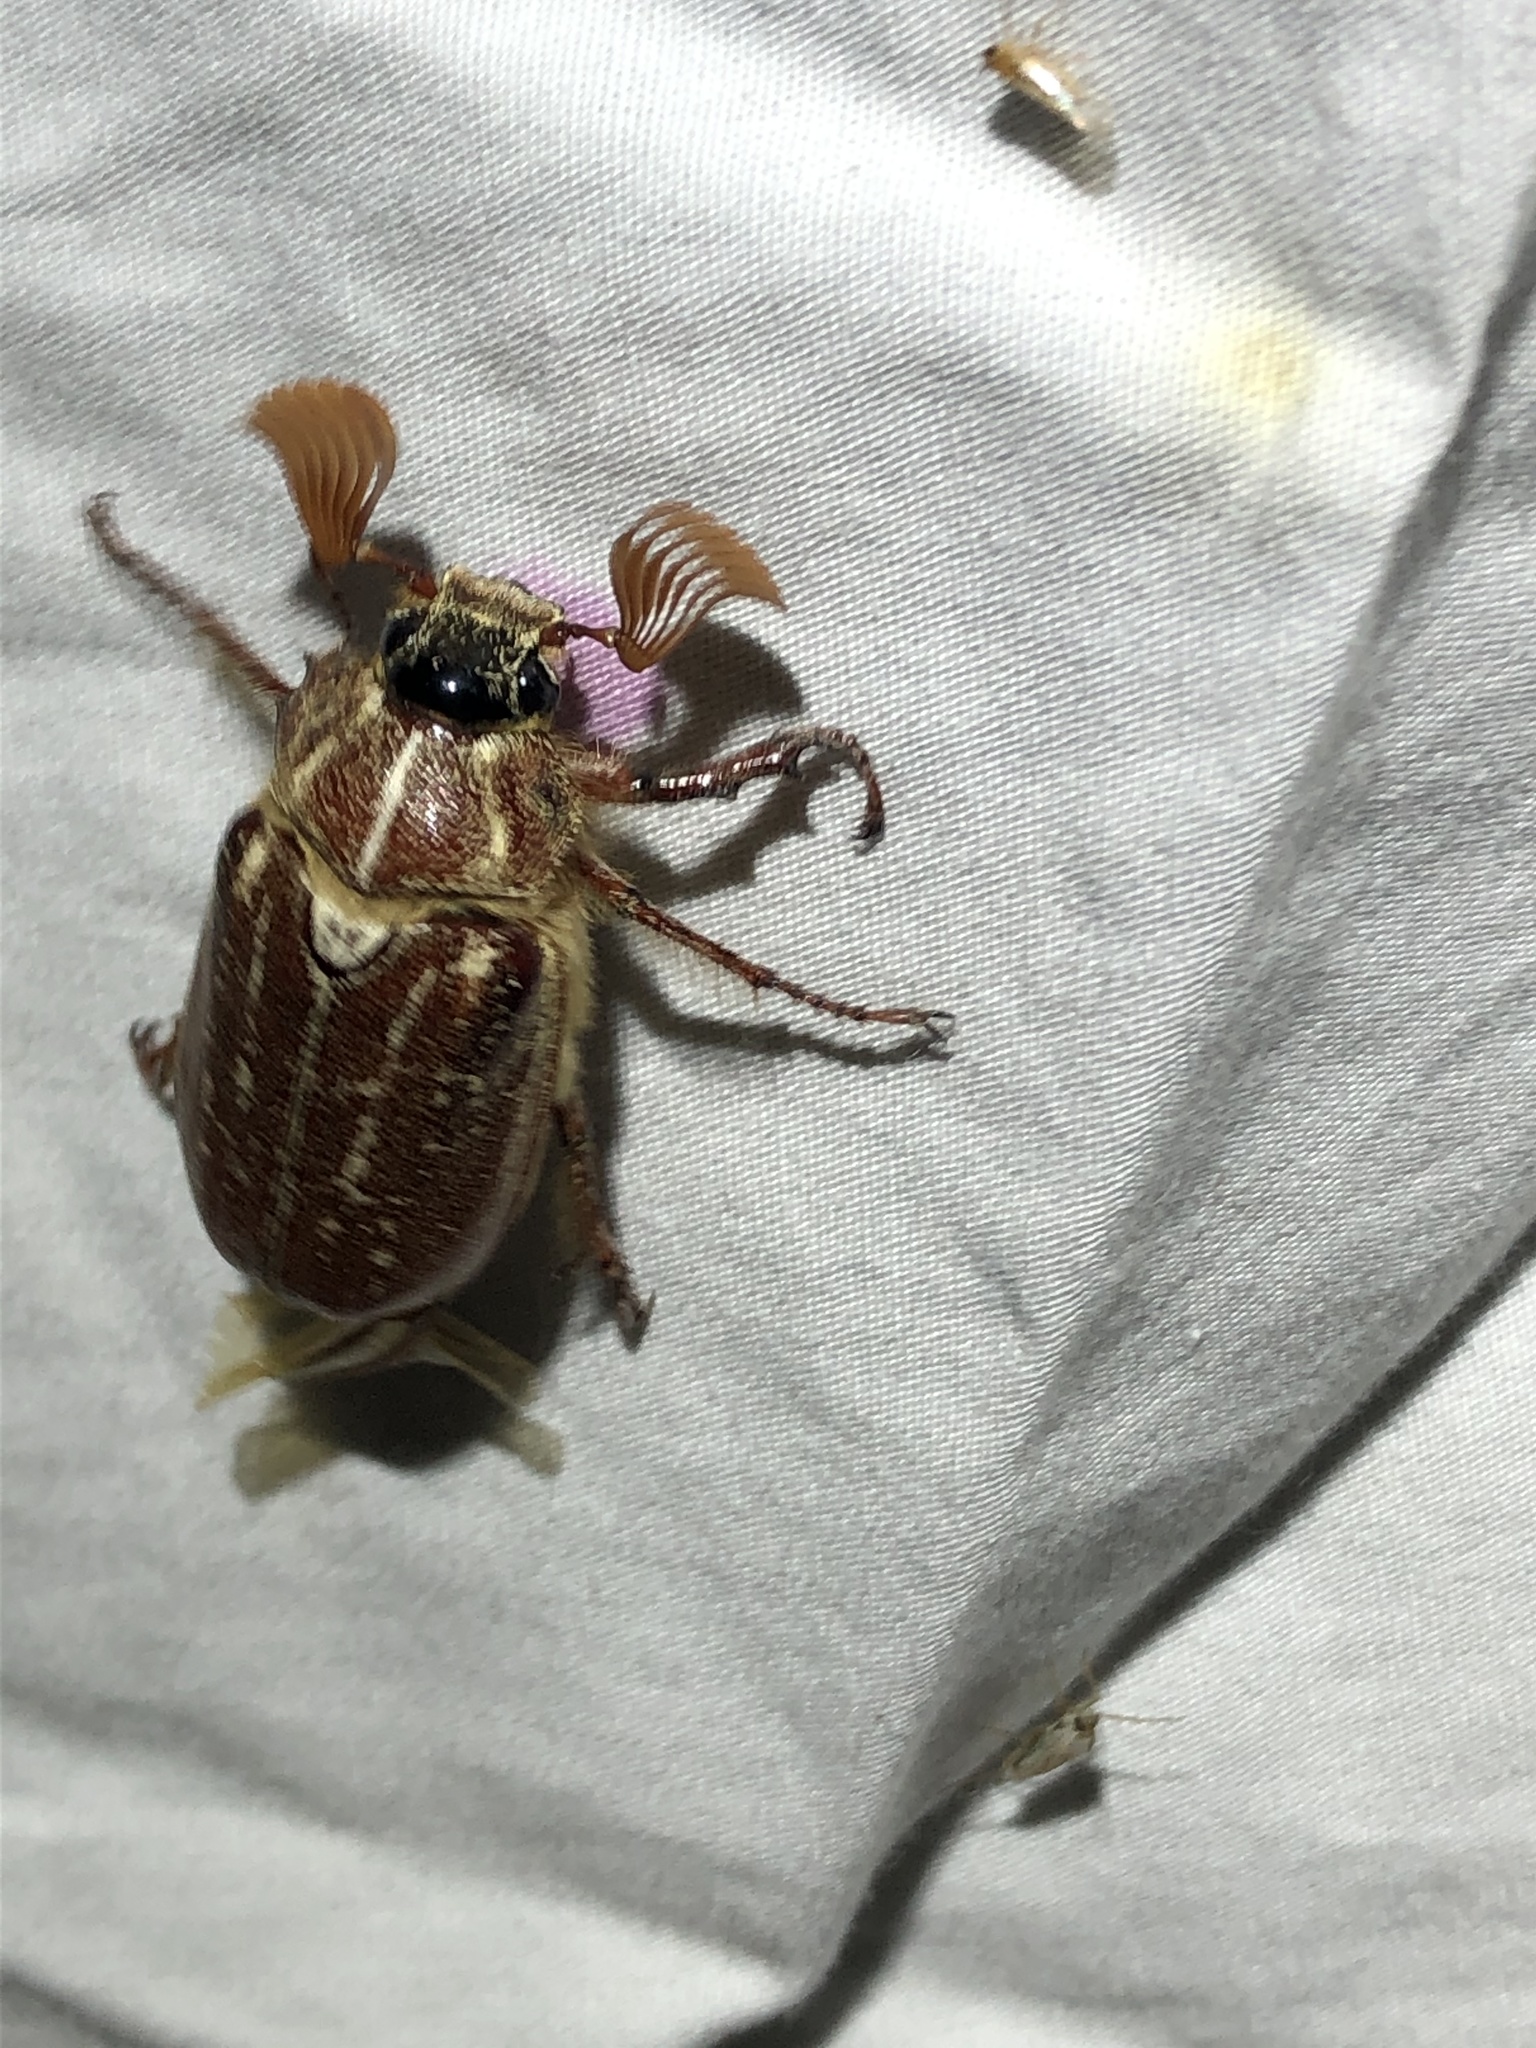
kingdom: Animalia
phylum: Arthropoda
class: Insecta
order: Coleoptera
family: Scarabaeidae
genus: Polyphylla
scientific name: Polyphylla mescalerensis
